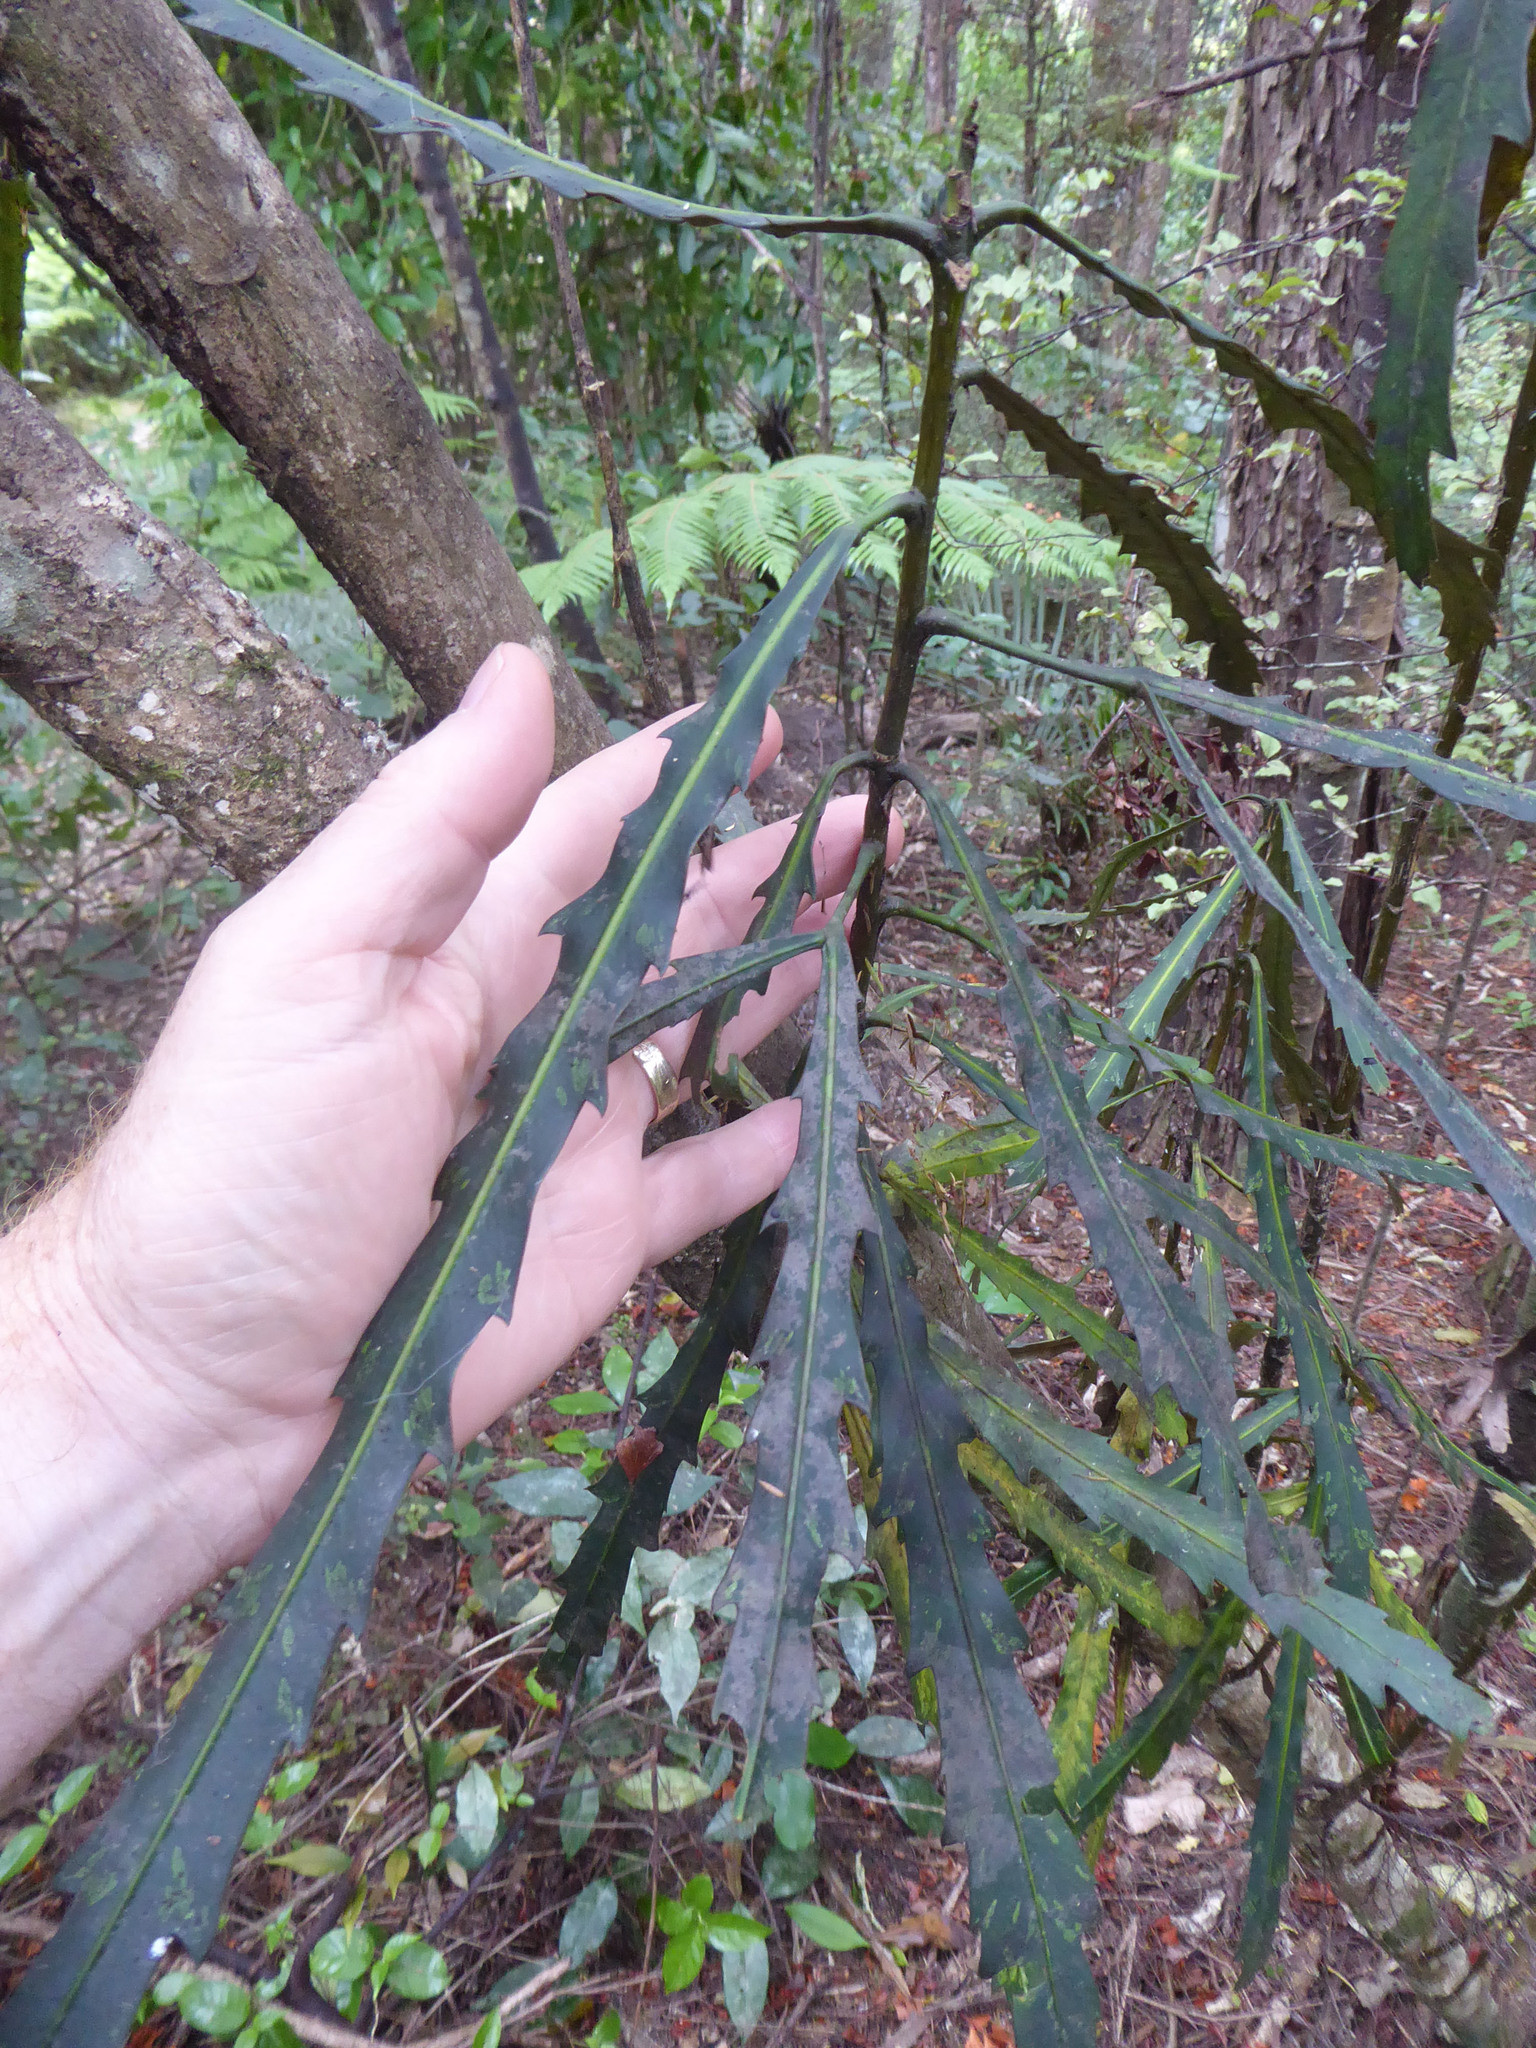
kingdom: Plantae
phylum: Tracheophyta
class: Magnoliopsida
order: Apiales
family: Araliaceae
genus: Pseudopanax
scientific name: Pseudopanax
